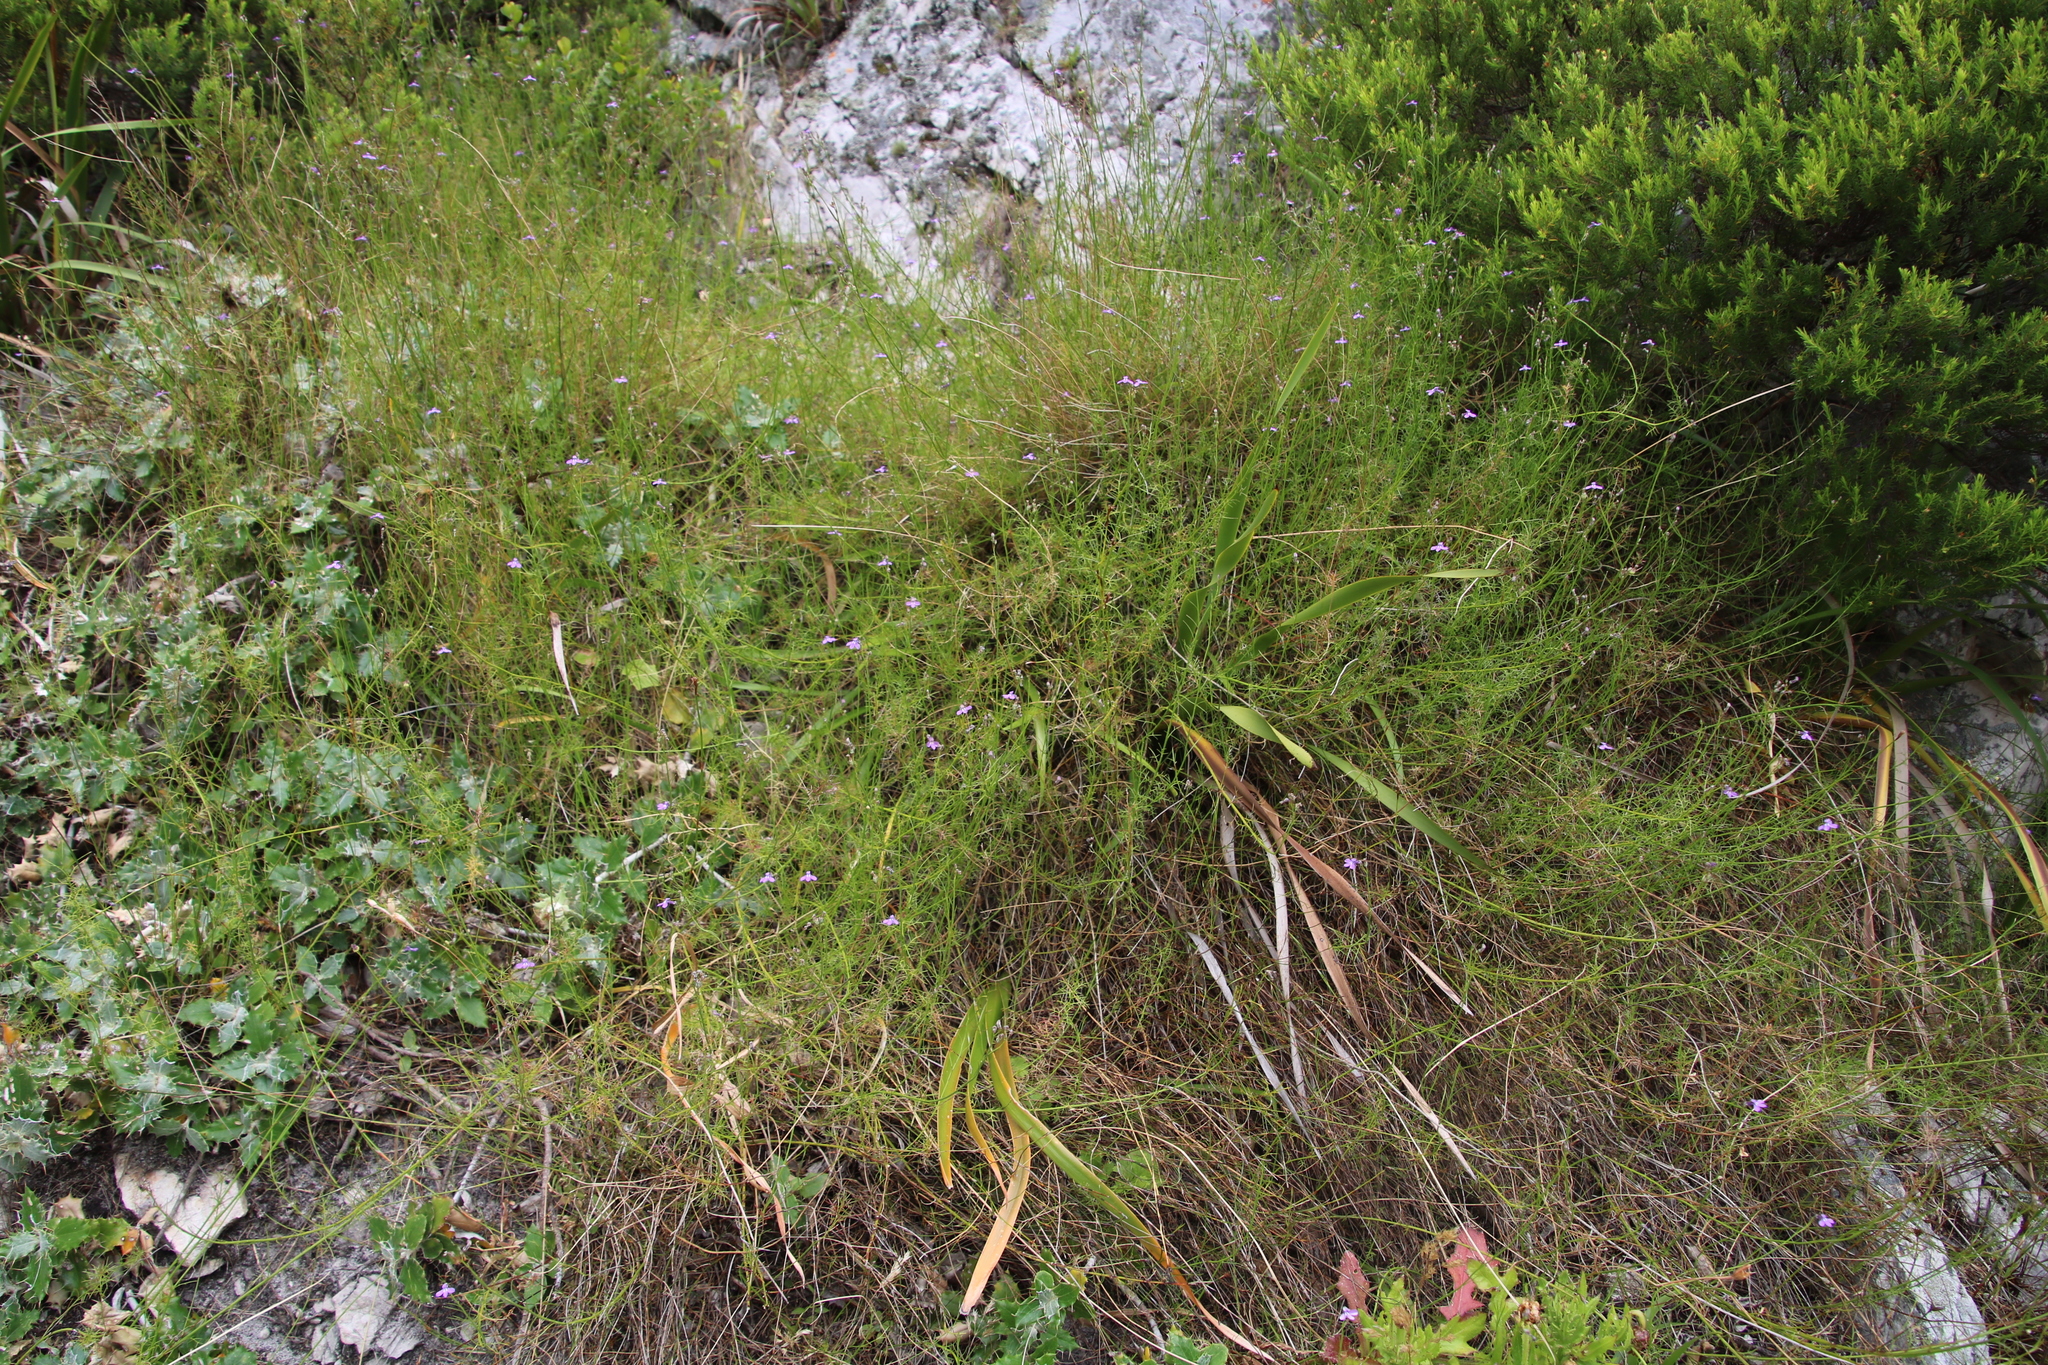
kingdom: Plantae
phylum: Tracheophyta
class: Magnoliopsida
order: Asterales
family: Campanulaceae
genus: Lobelia
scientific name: Lobelia setacea
